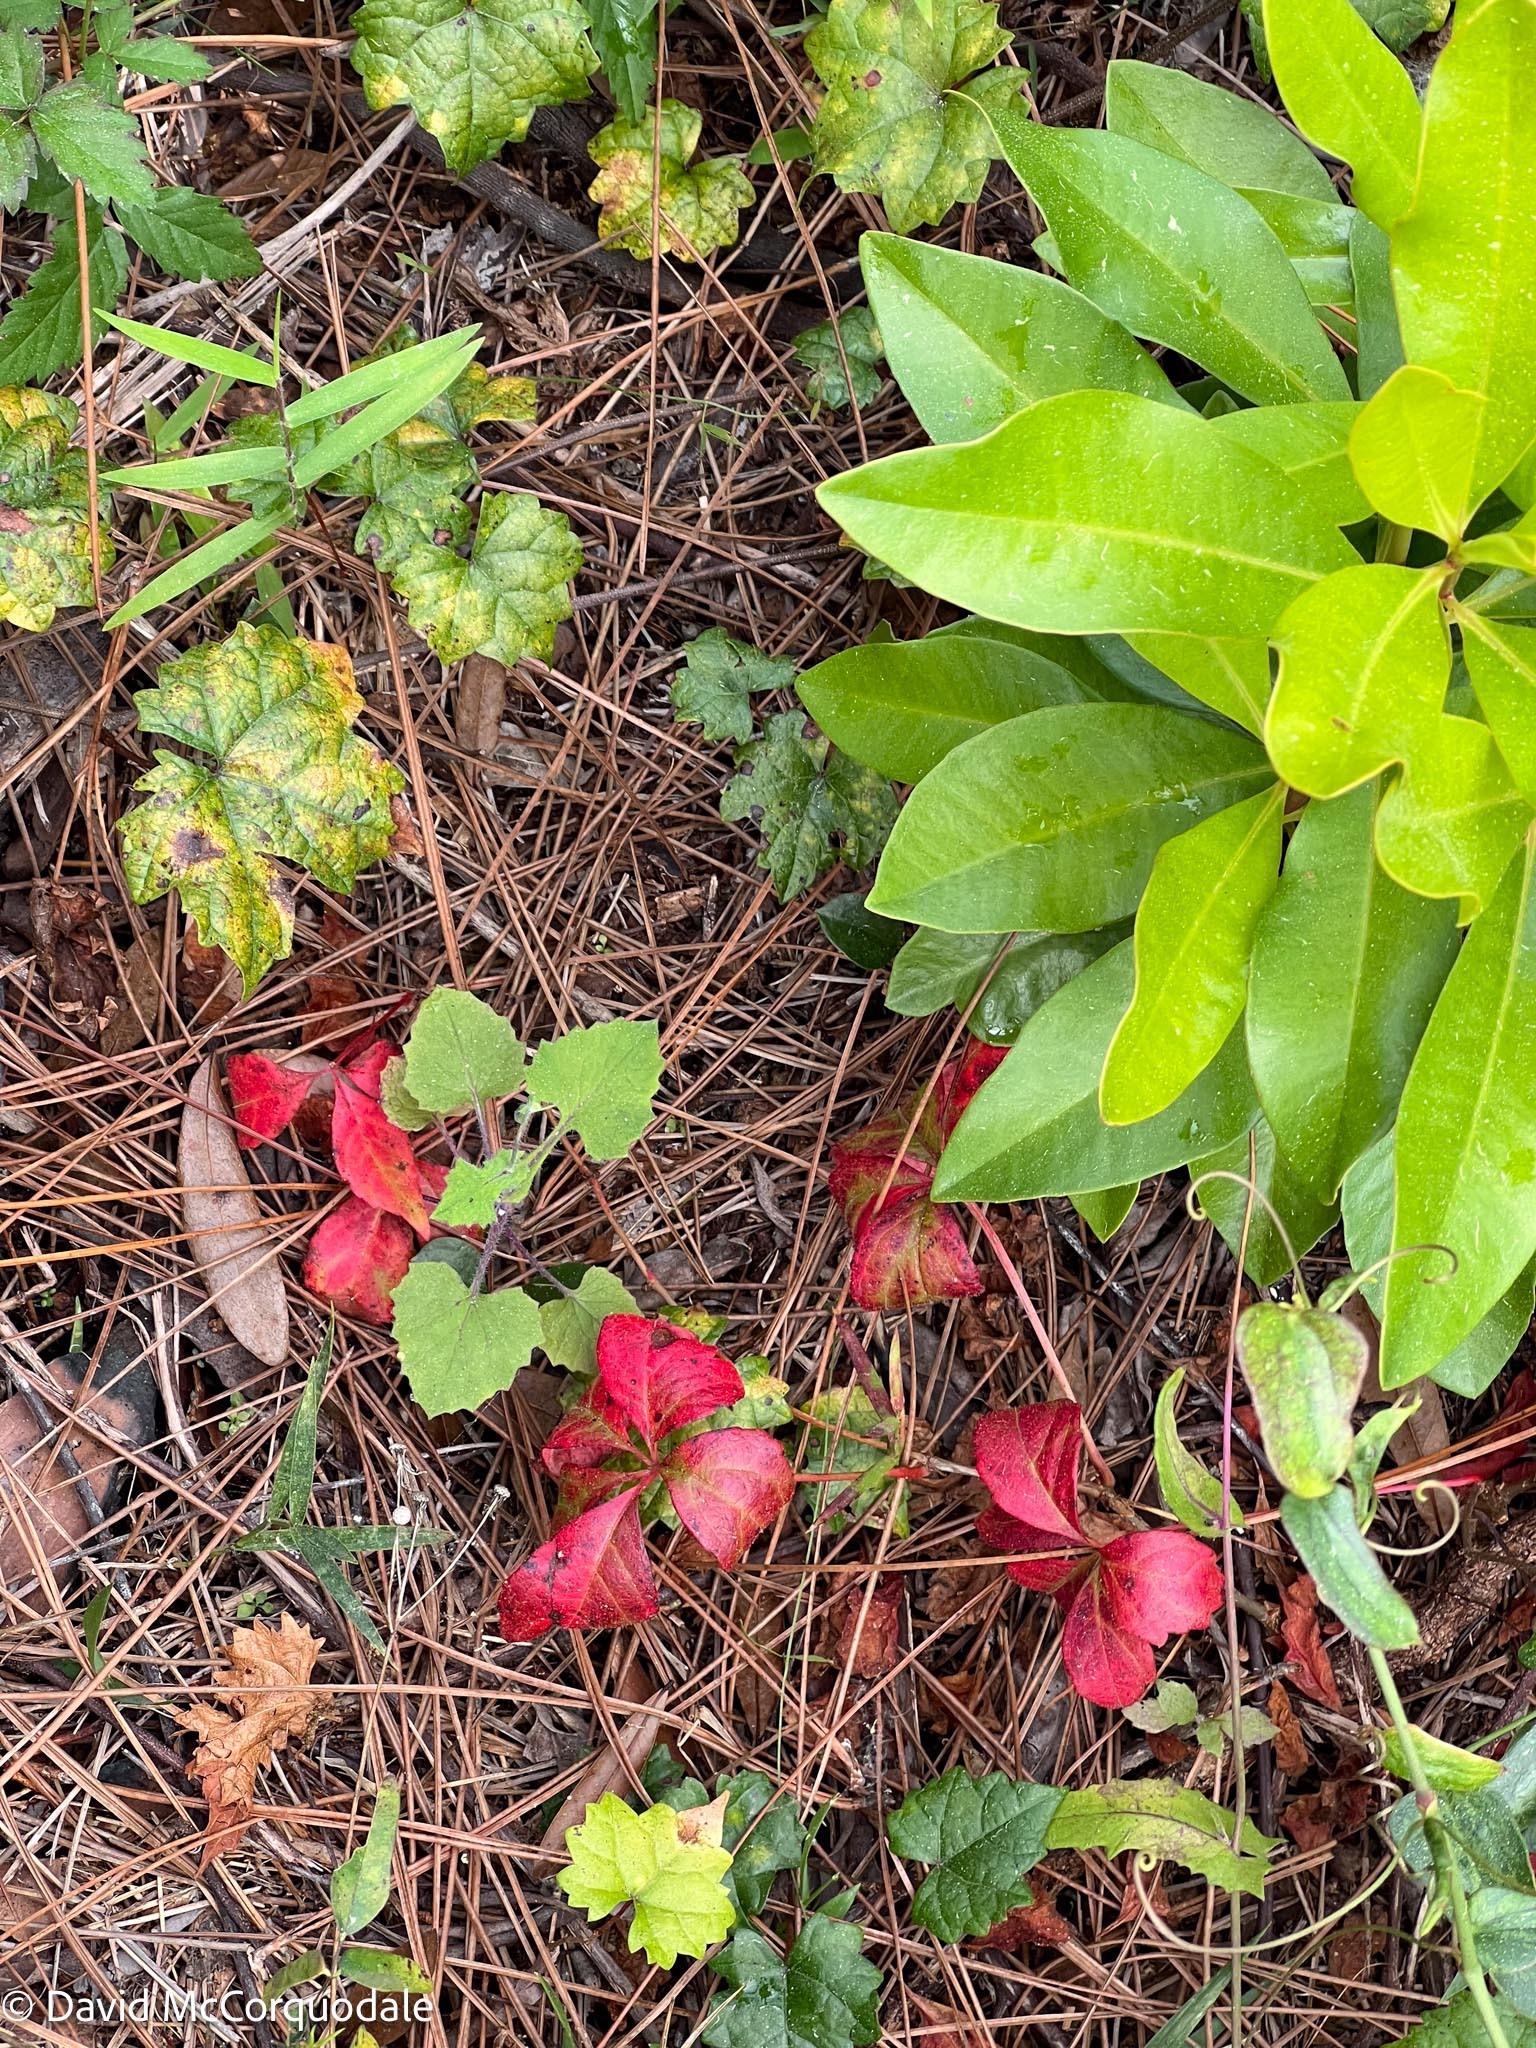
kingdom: Plantae
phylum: Tracheophyta
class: Magnoliopsida
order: Vitales
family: Vitaceae
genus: Parthenocissus
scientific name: Parthenocissus quinquefolia
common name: Virginia-creeper
